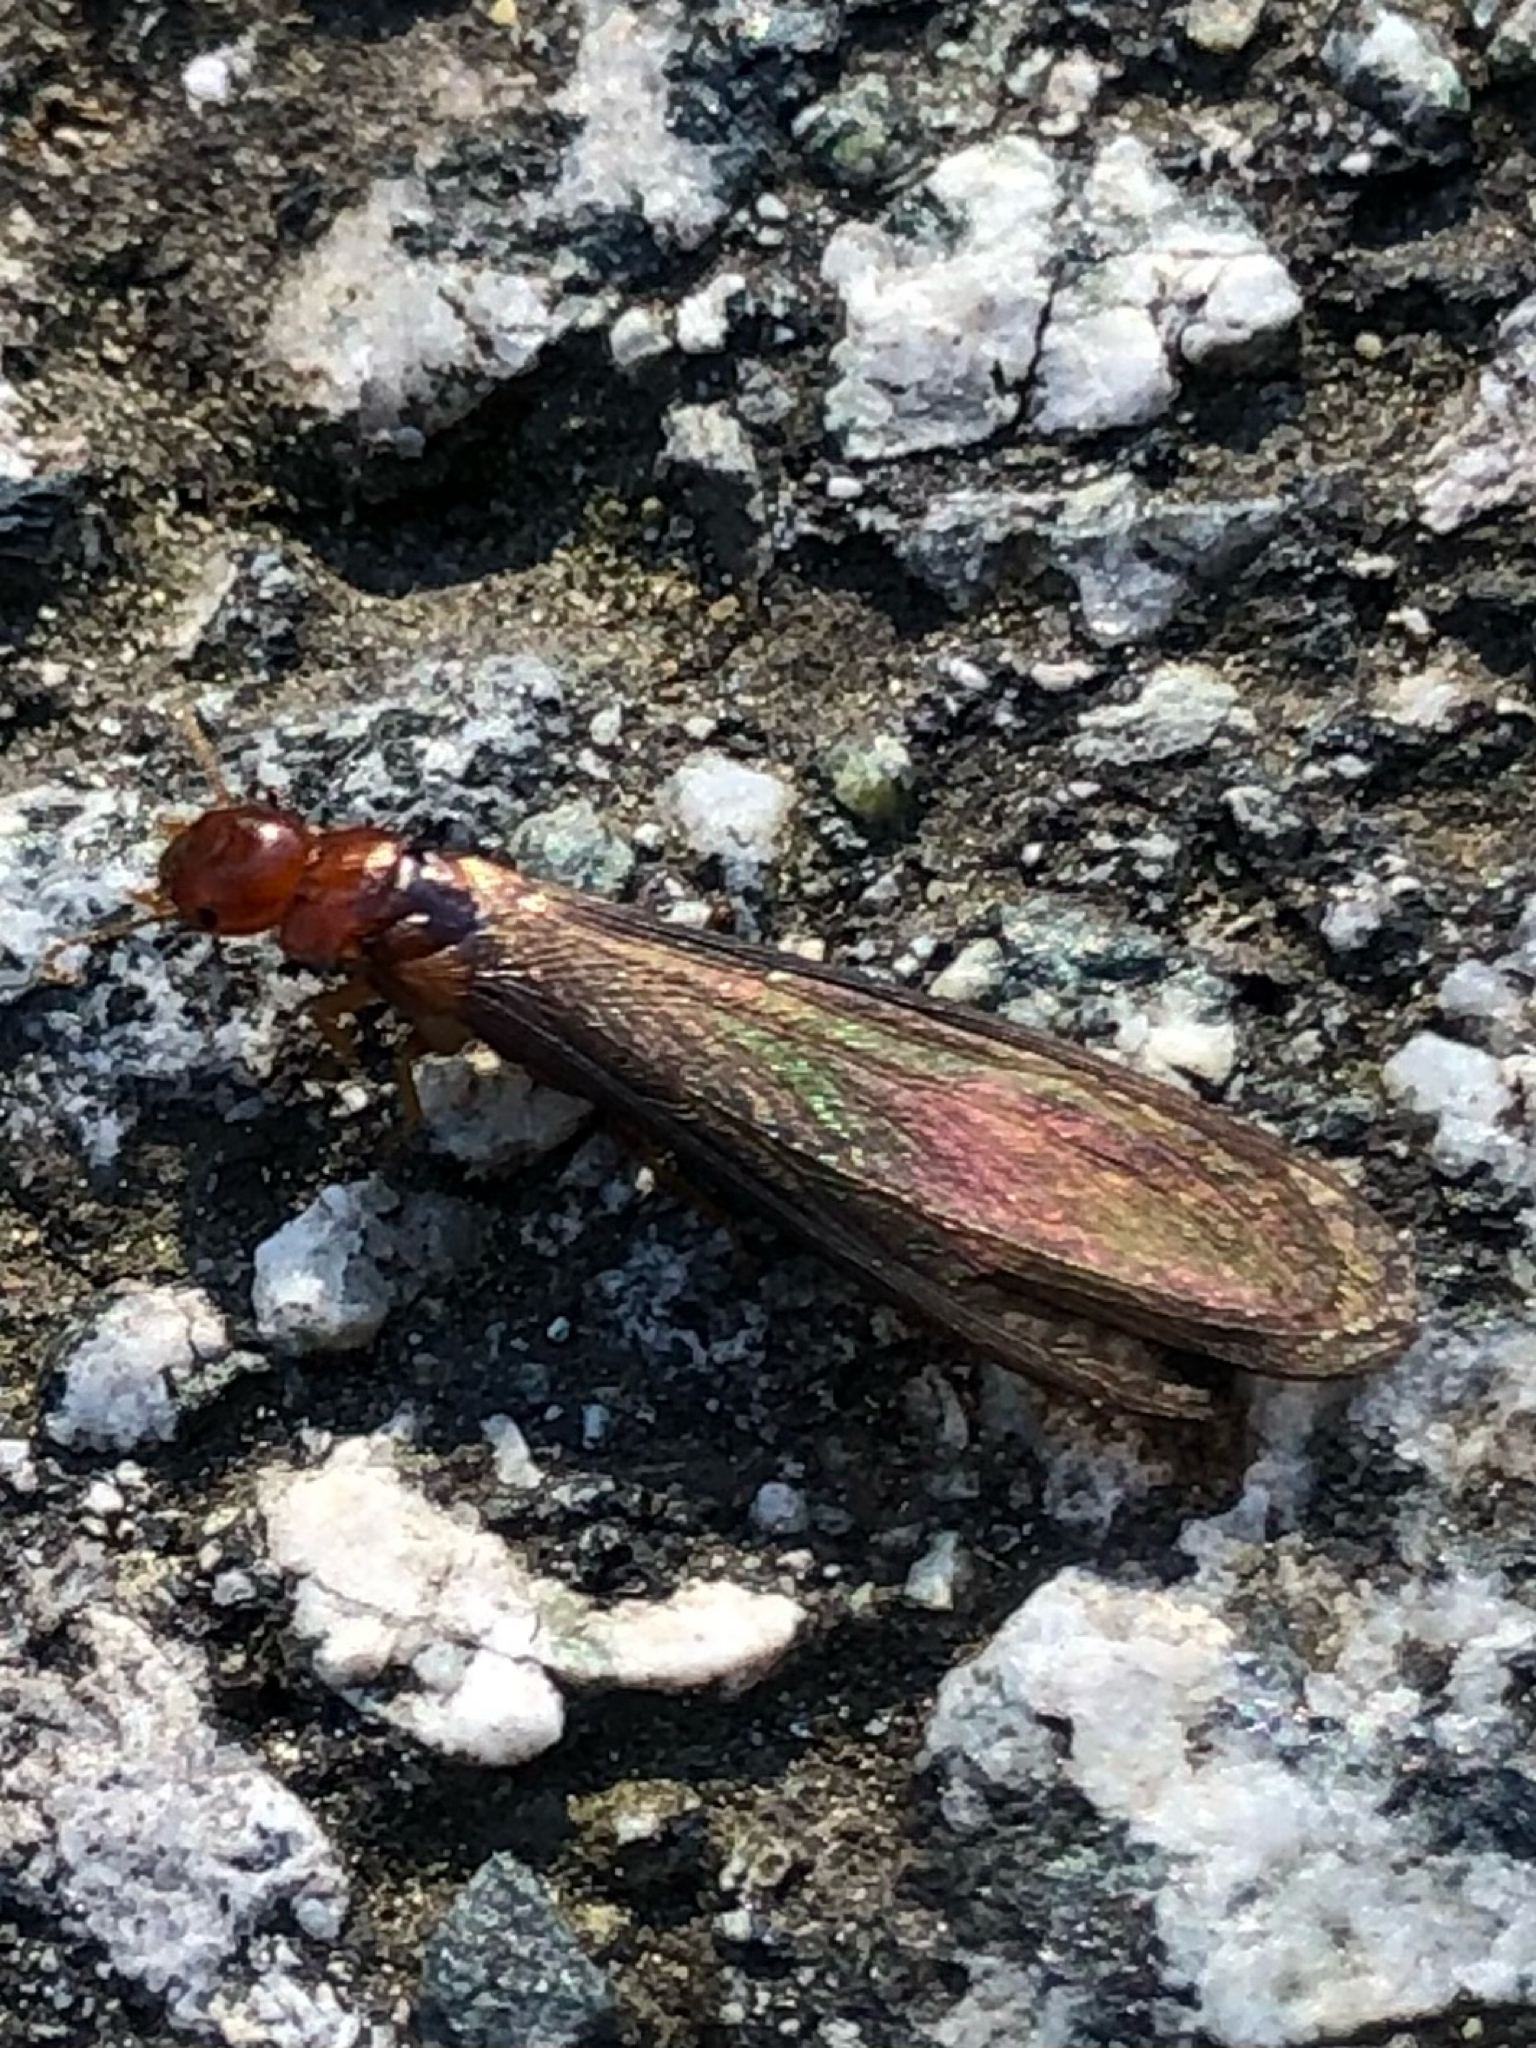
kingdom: Animalia
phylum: Arthropoda
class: Insecta
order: Blattodea
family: Kalotermitidae
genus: Incisitermes
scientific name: Incisitermes minor
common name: Termite
